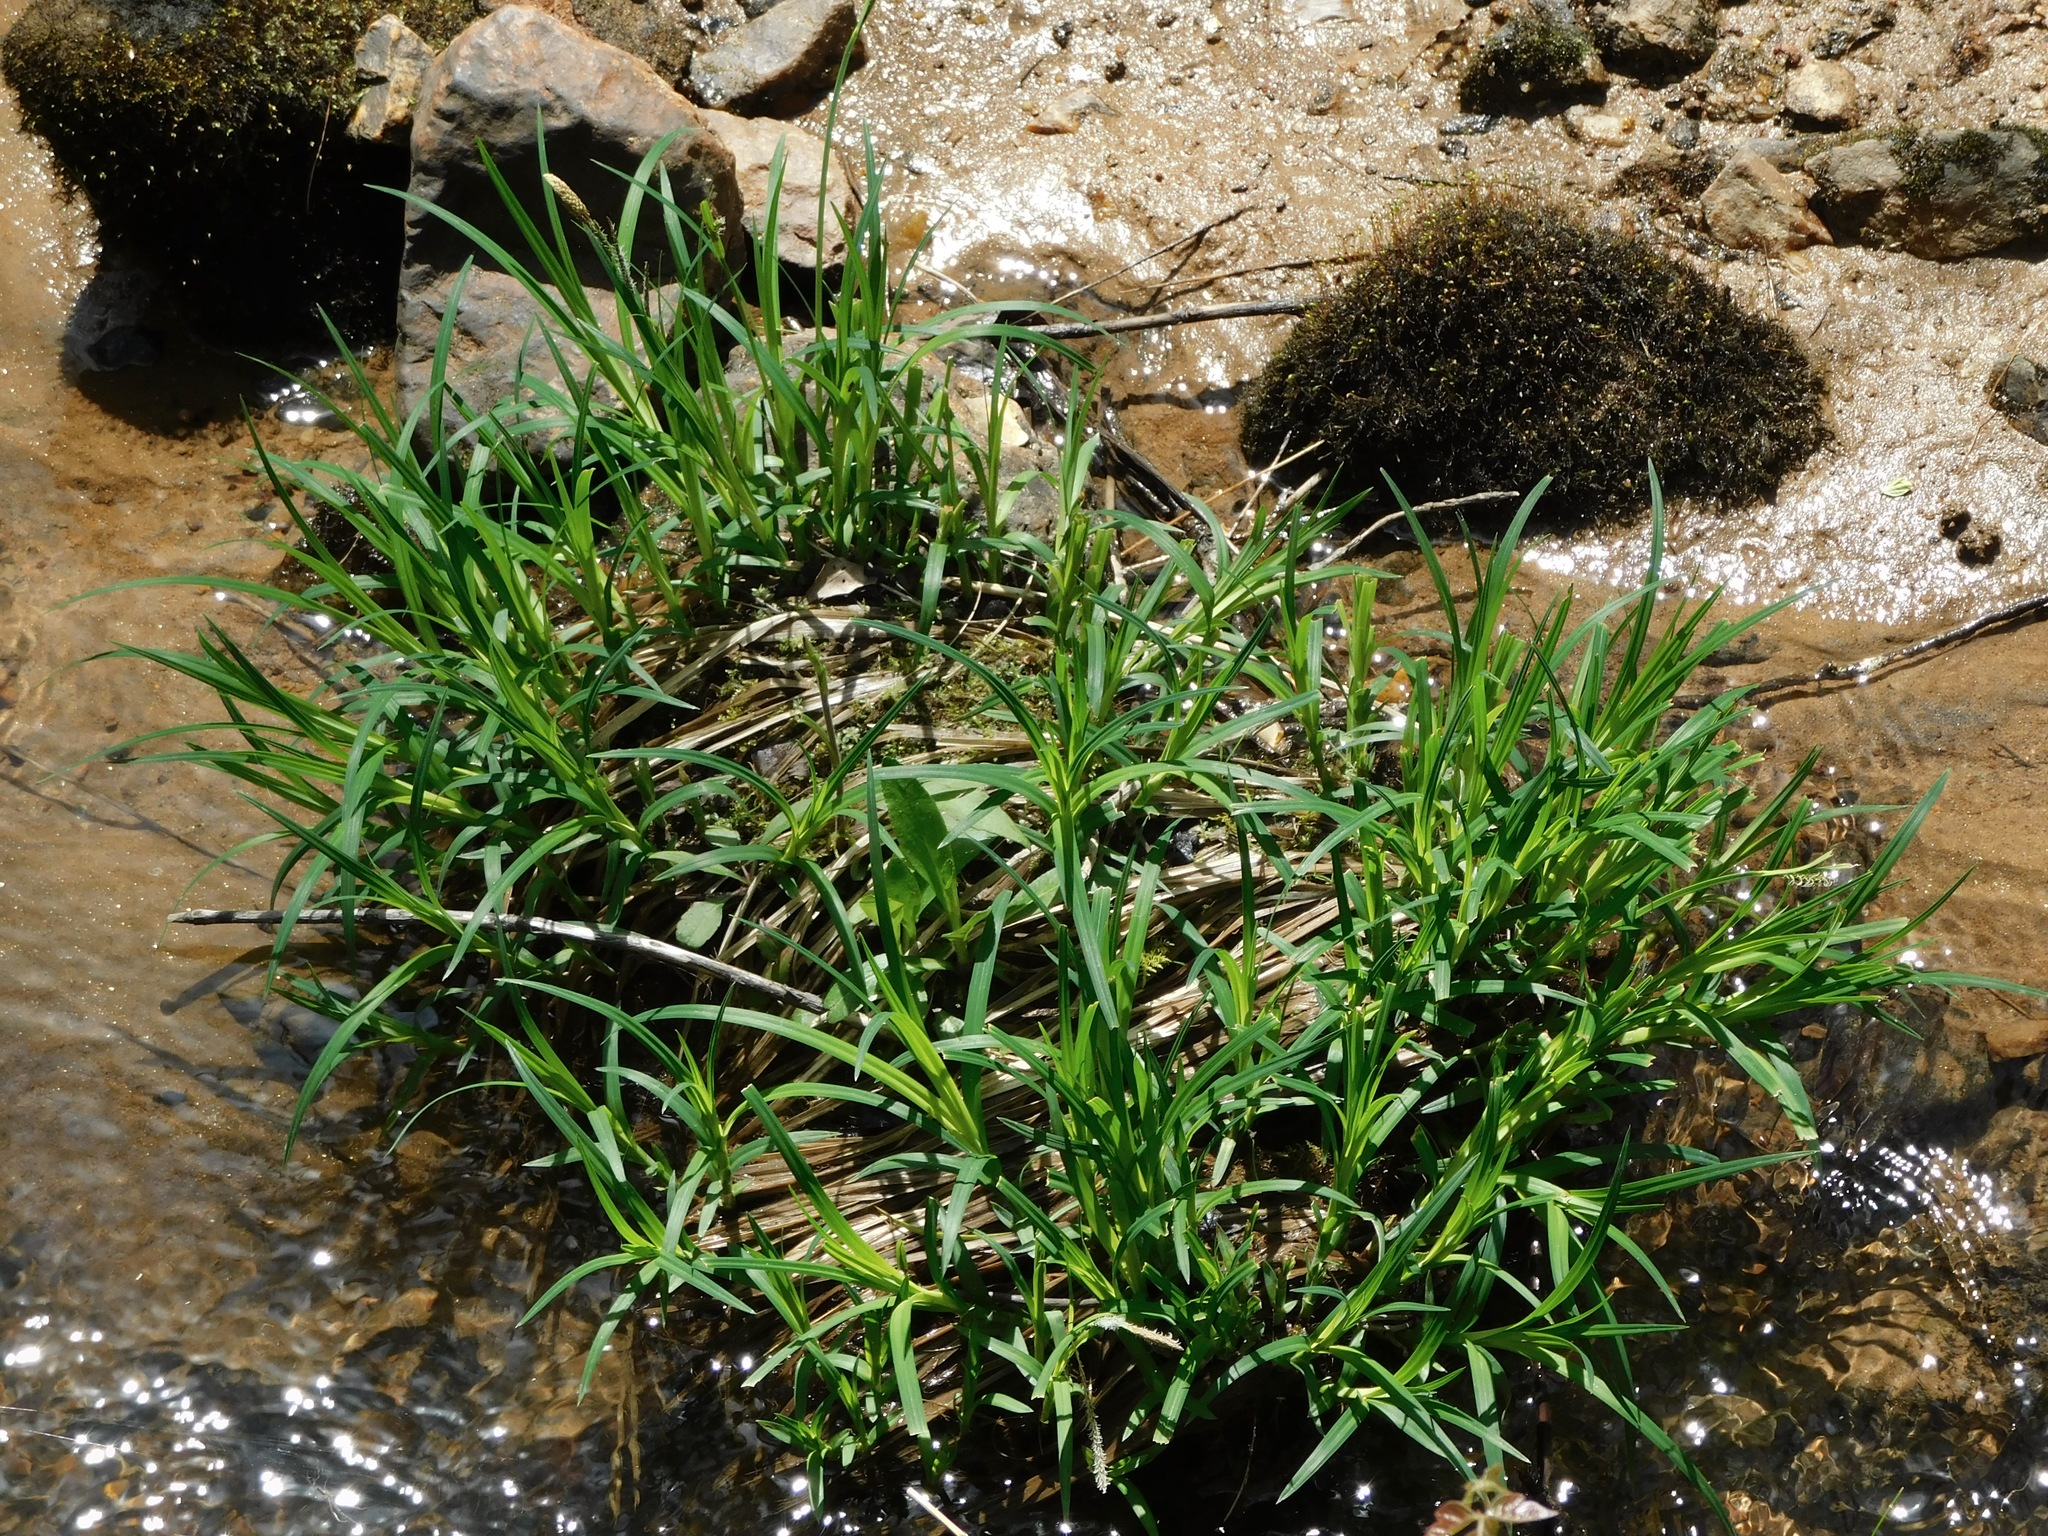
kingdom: Plantae
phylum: Tracheophyta
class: Liliopsida
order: Poales
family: Cyperaceae
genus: Carex
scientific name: Carex torta
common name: Twisted sedge
